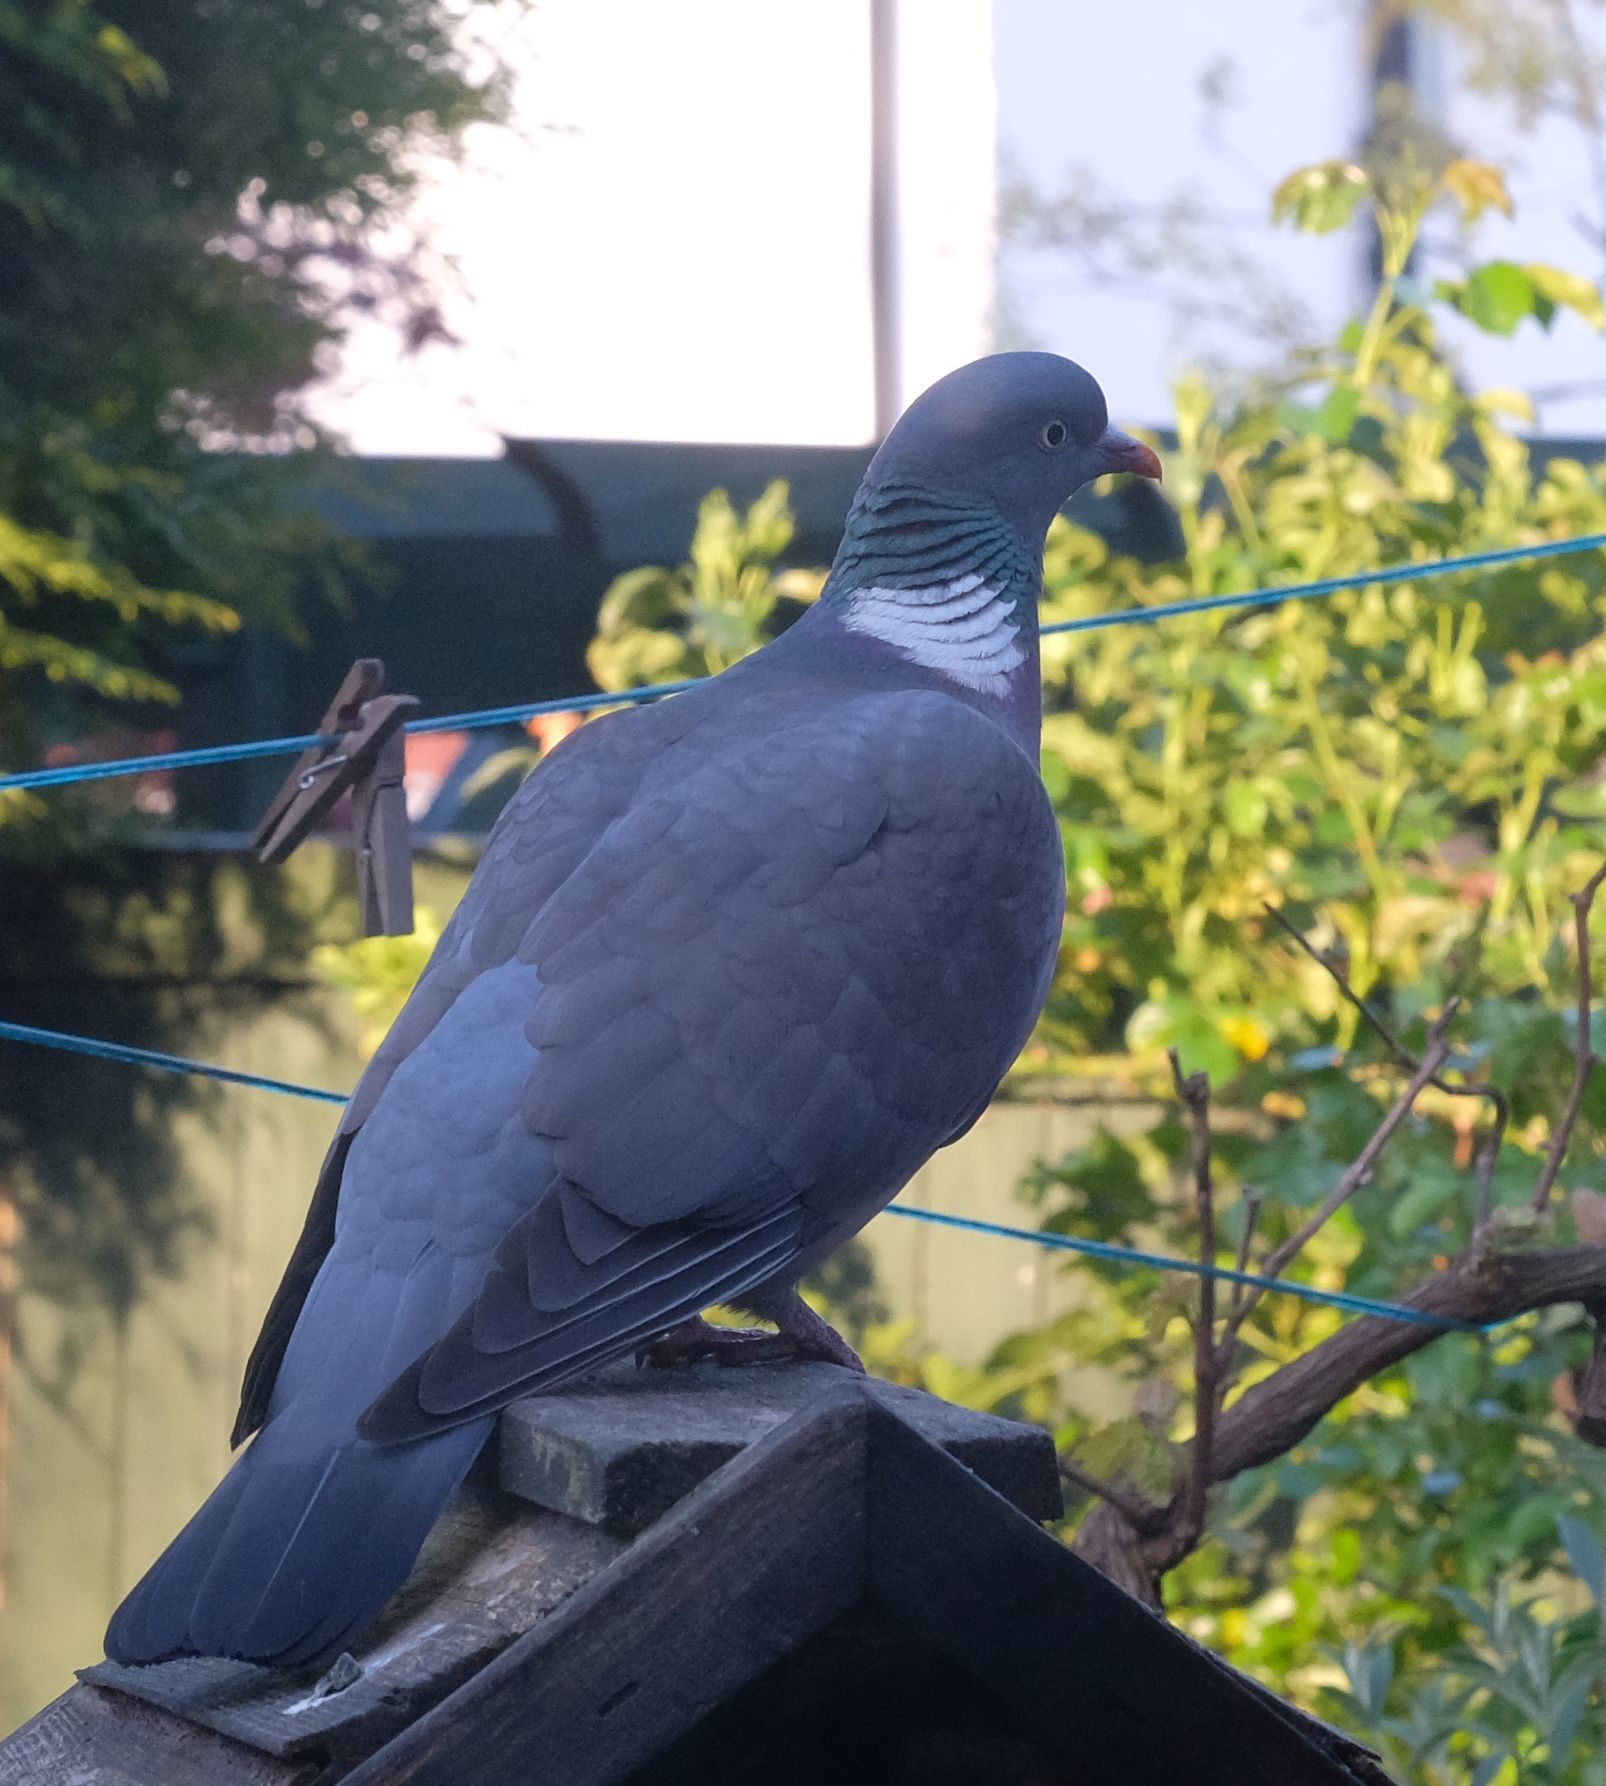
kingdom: Animalia
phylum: Chordata
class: Aves
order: Columbiformes
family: Columbidae
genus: Columba
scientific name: Columba palumbus
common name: Common wood pigeon
